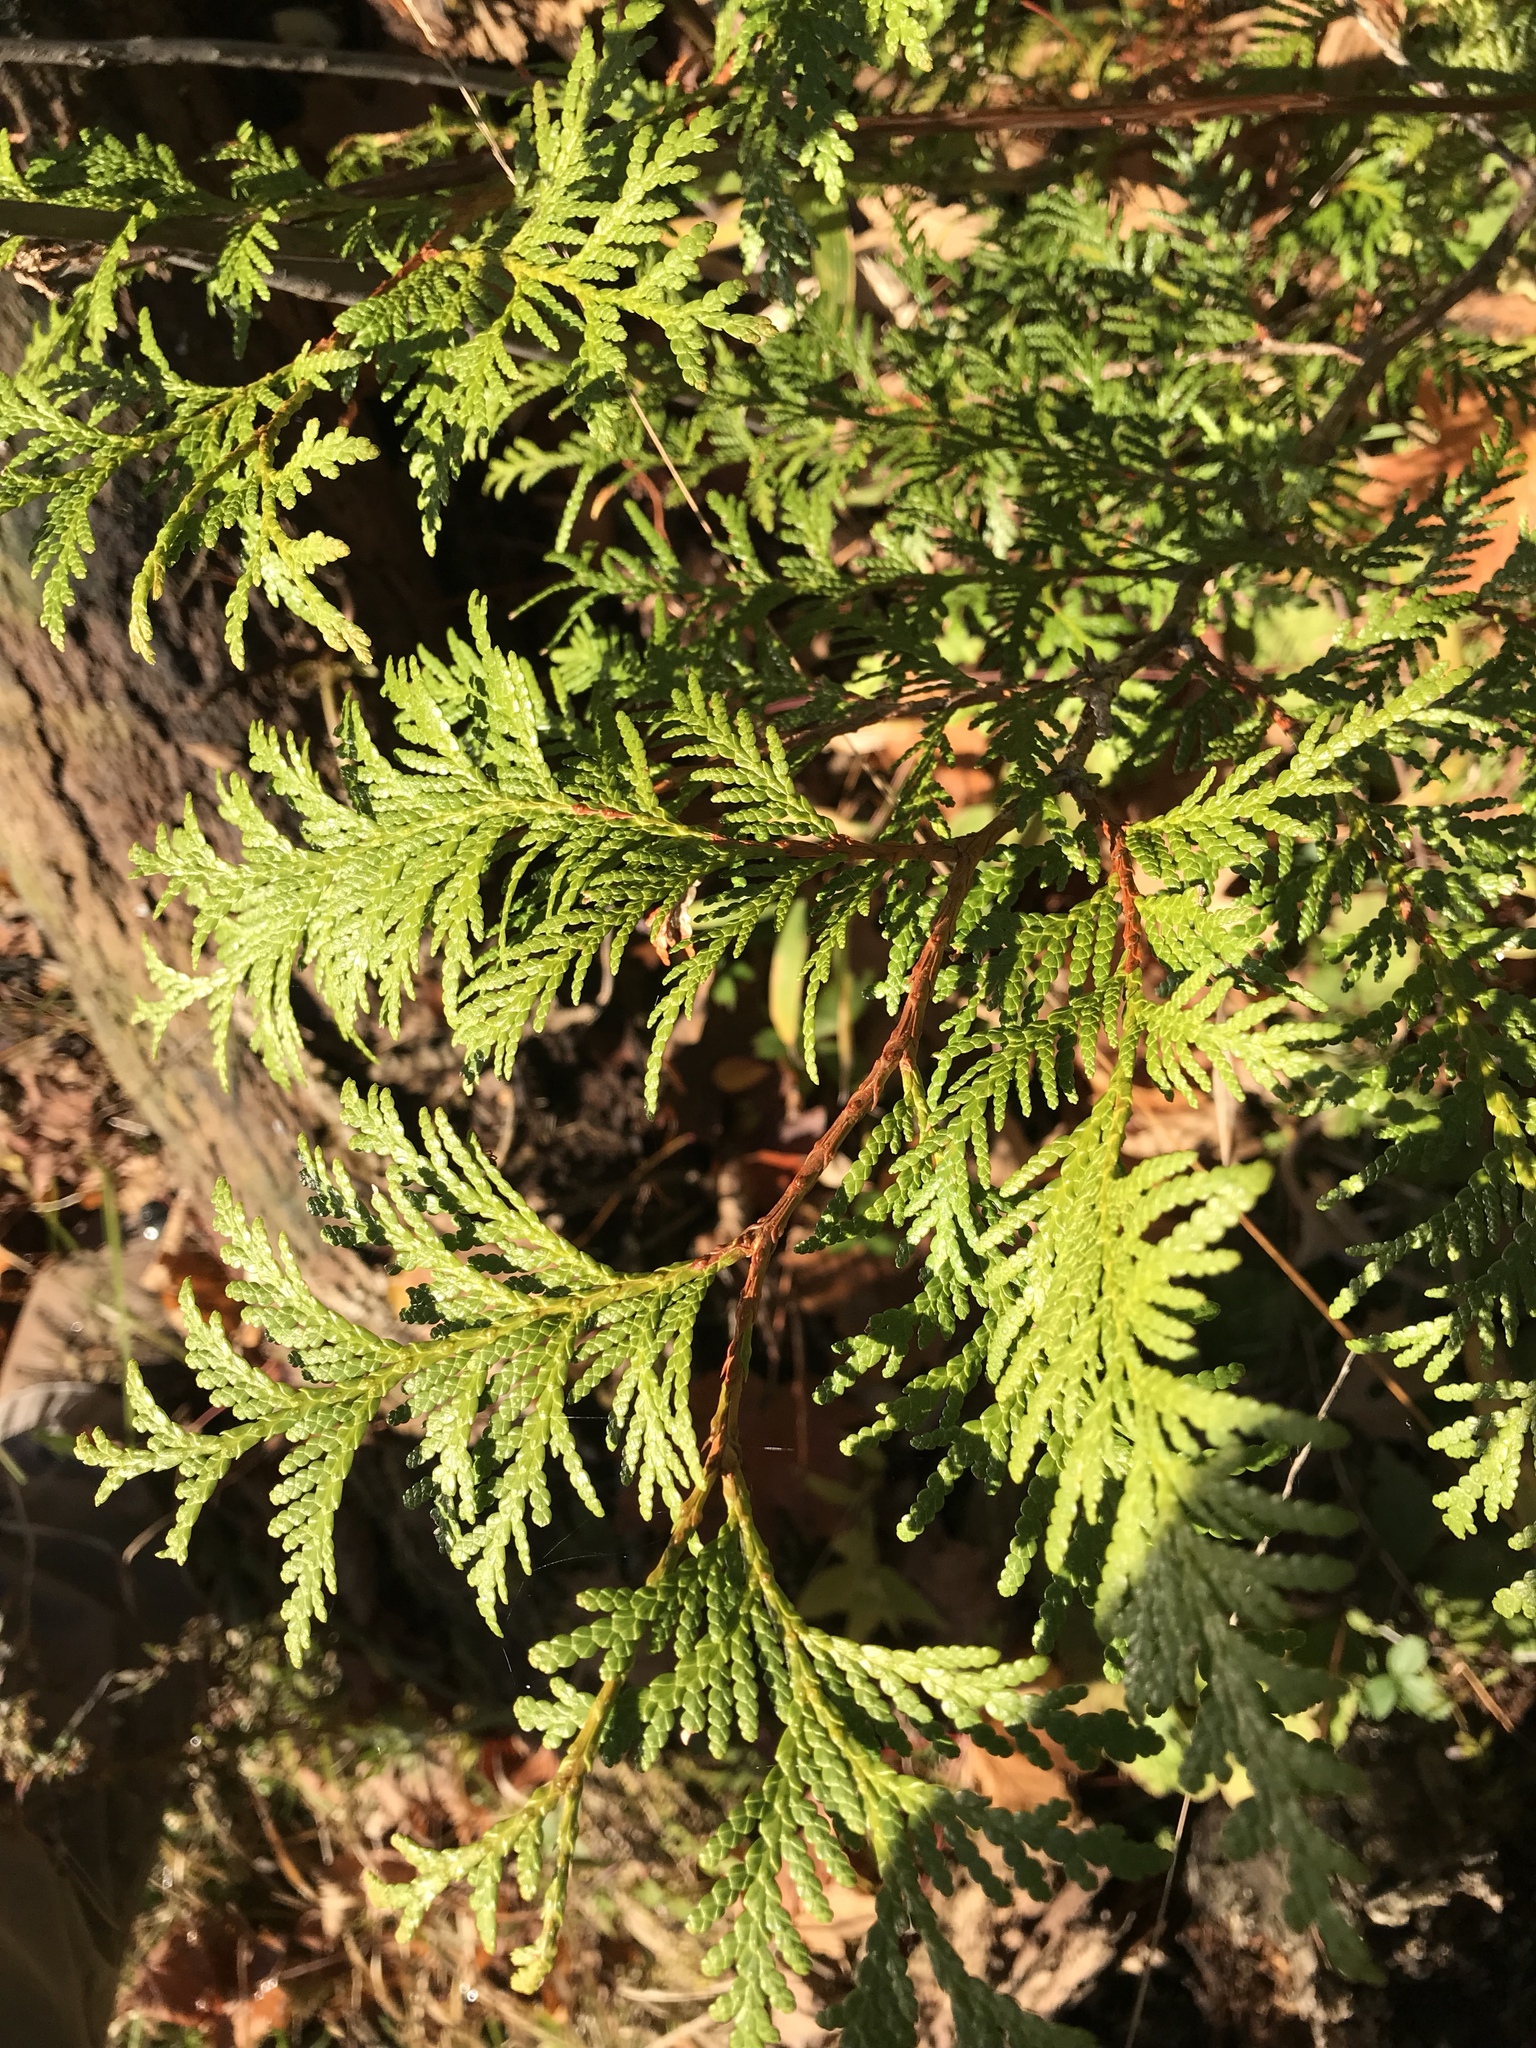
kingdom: Plantae
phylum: Tracheophyta
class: Pinopsida
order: Pinales
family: Cupressaceae
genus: Thuja
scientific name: Thuja occidentalis
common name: Northern white-cedar
